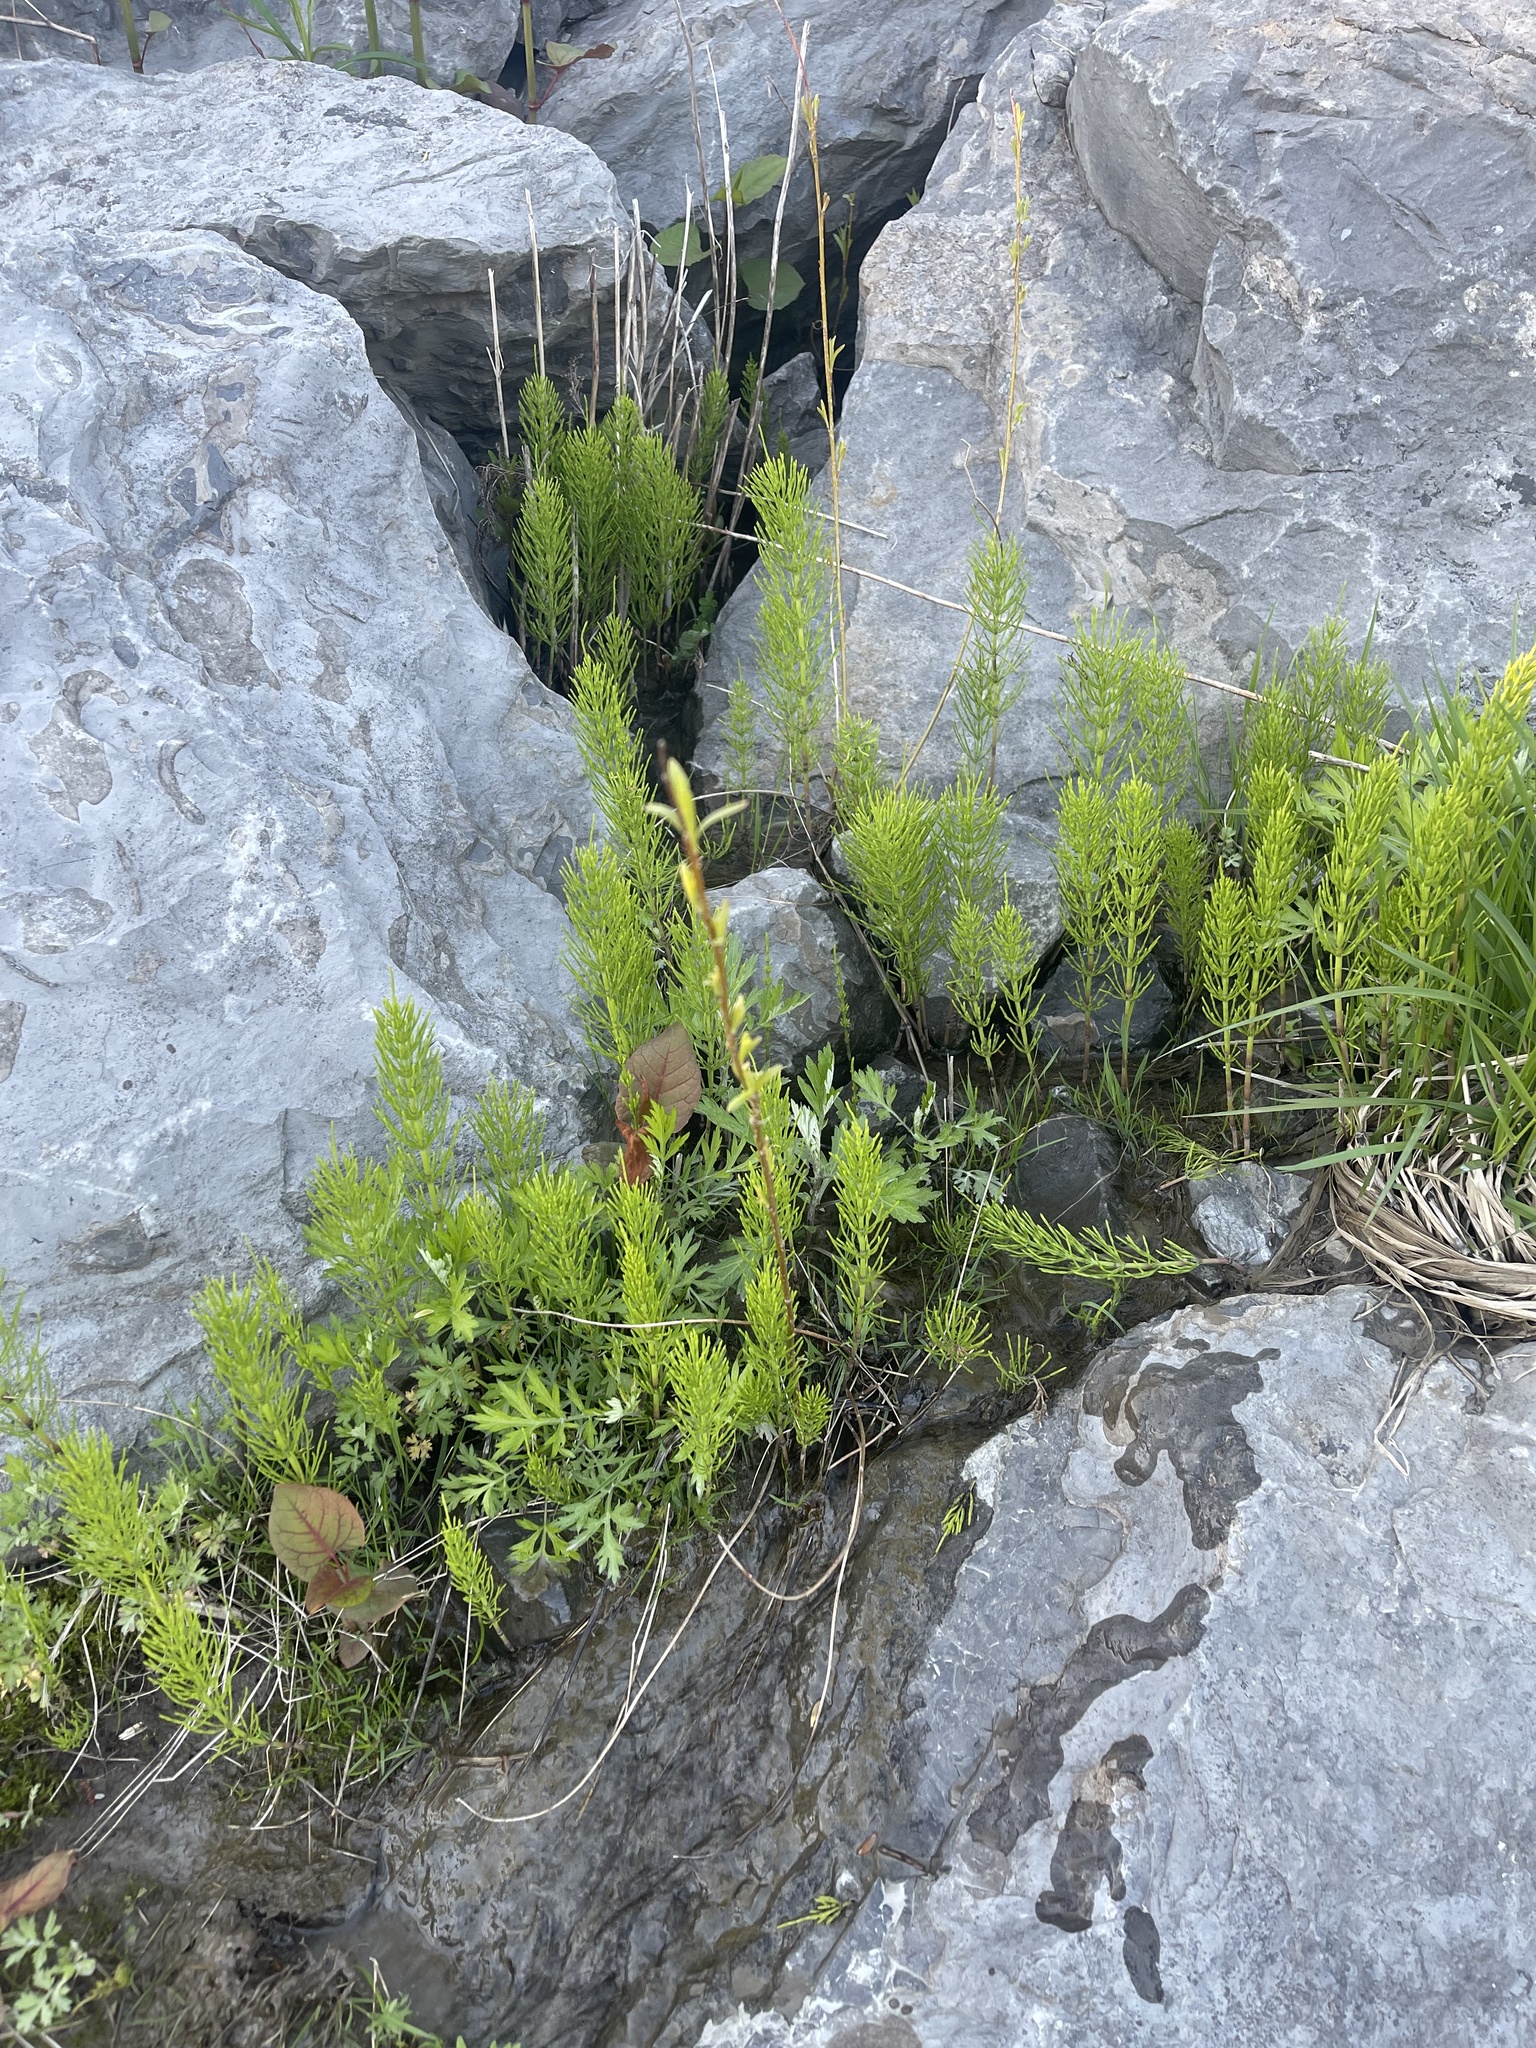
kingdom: Plantae
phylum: Tracheophyta
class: Polypodiopsida
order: Equisetales
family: Equisetaceae
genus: Equisetum
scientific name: Equisetum arvense
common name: Field horsetail
